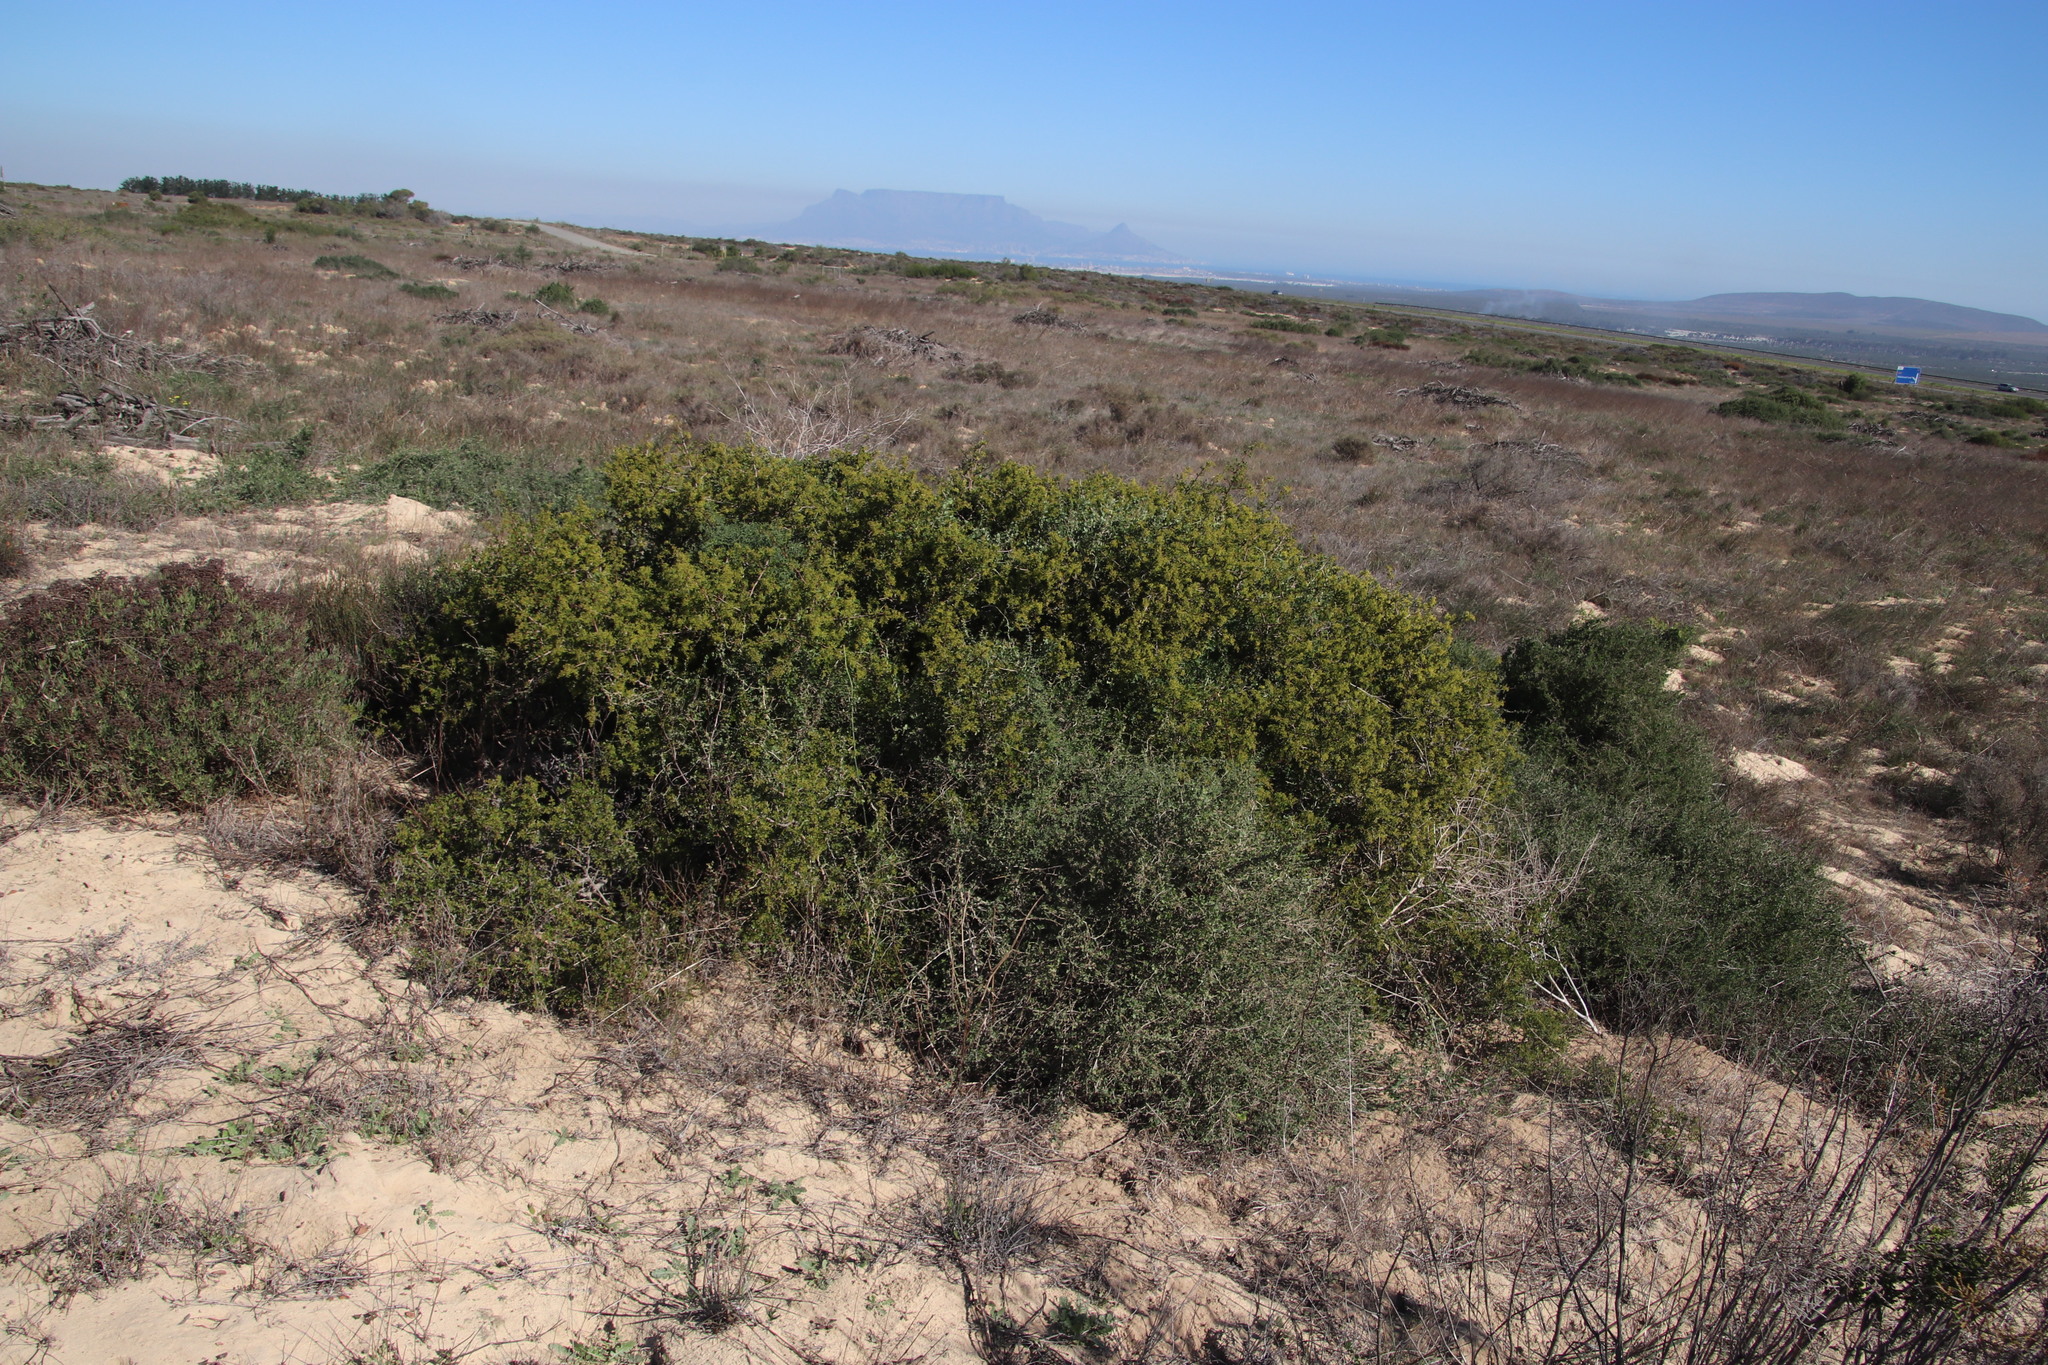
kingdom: Plantae
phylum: Tracheophyta
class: Magnoliopsida
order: Sapindales
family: Anacardiaceae
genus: Searsia
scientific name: Searsia laevigata
